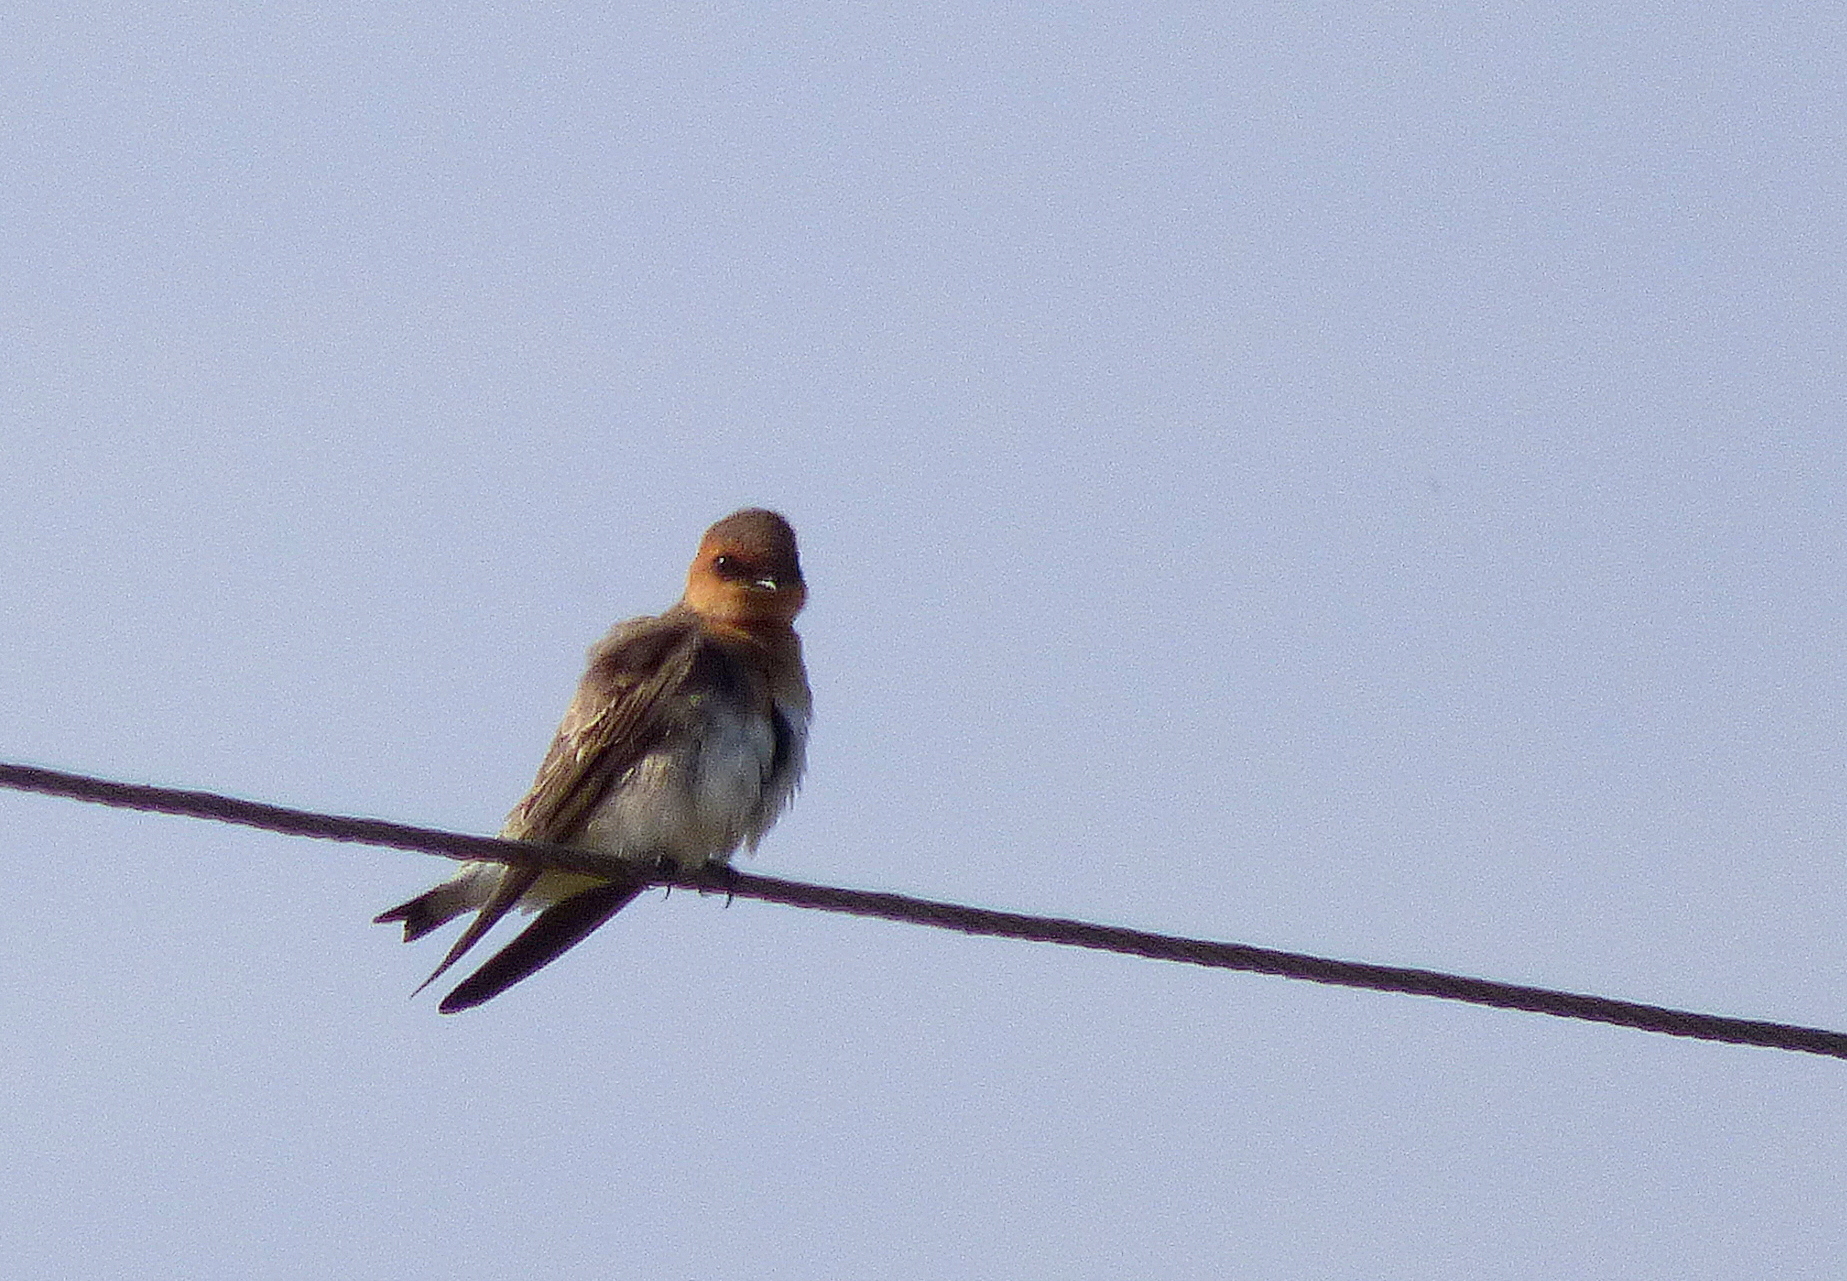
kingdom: Animalia
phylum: Chordata
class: Aves
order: Passeriformes
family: Hirundinidae
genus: Alopochelidon
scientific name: Alopochelidon fucata
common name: Tawny-headed swallow
